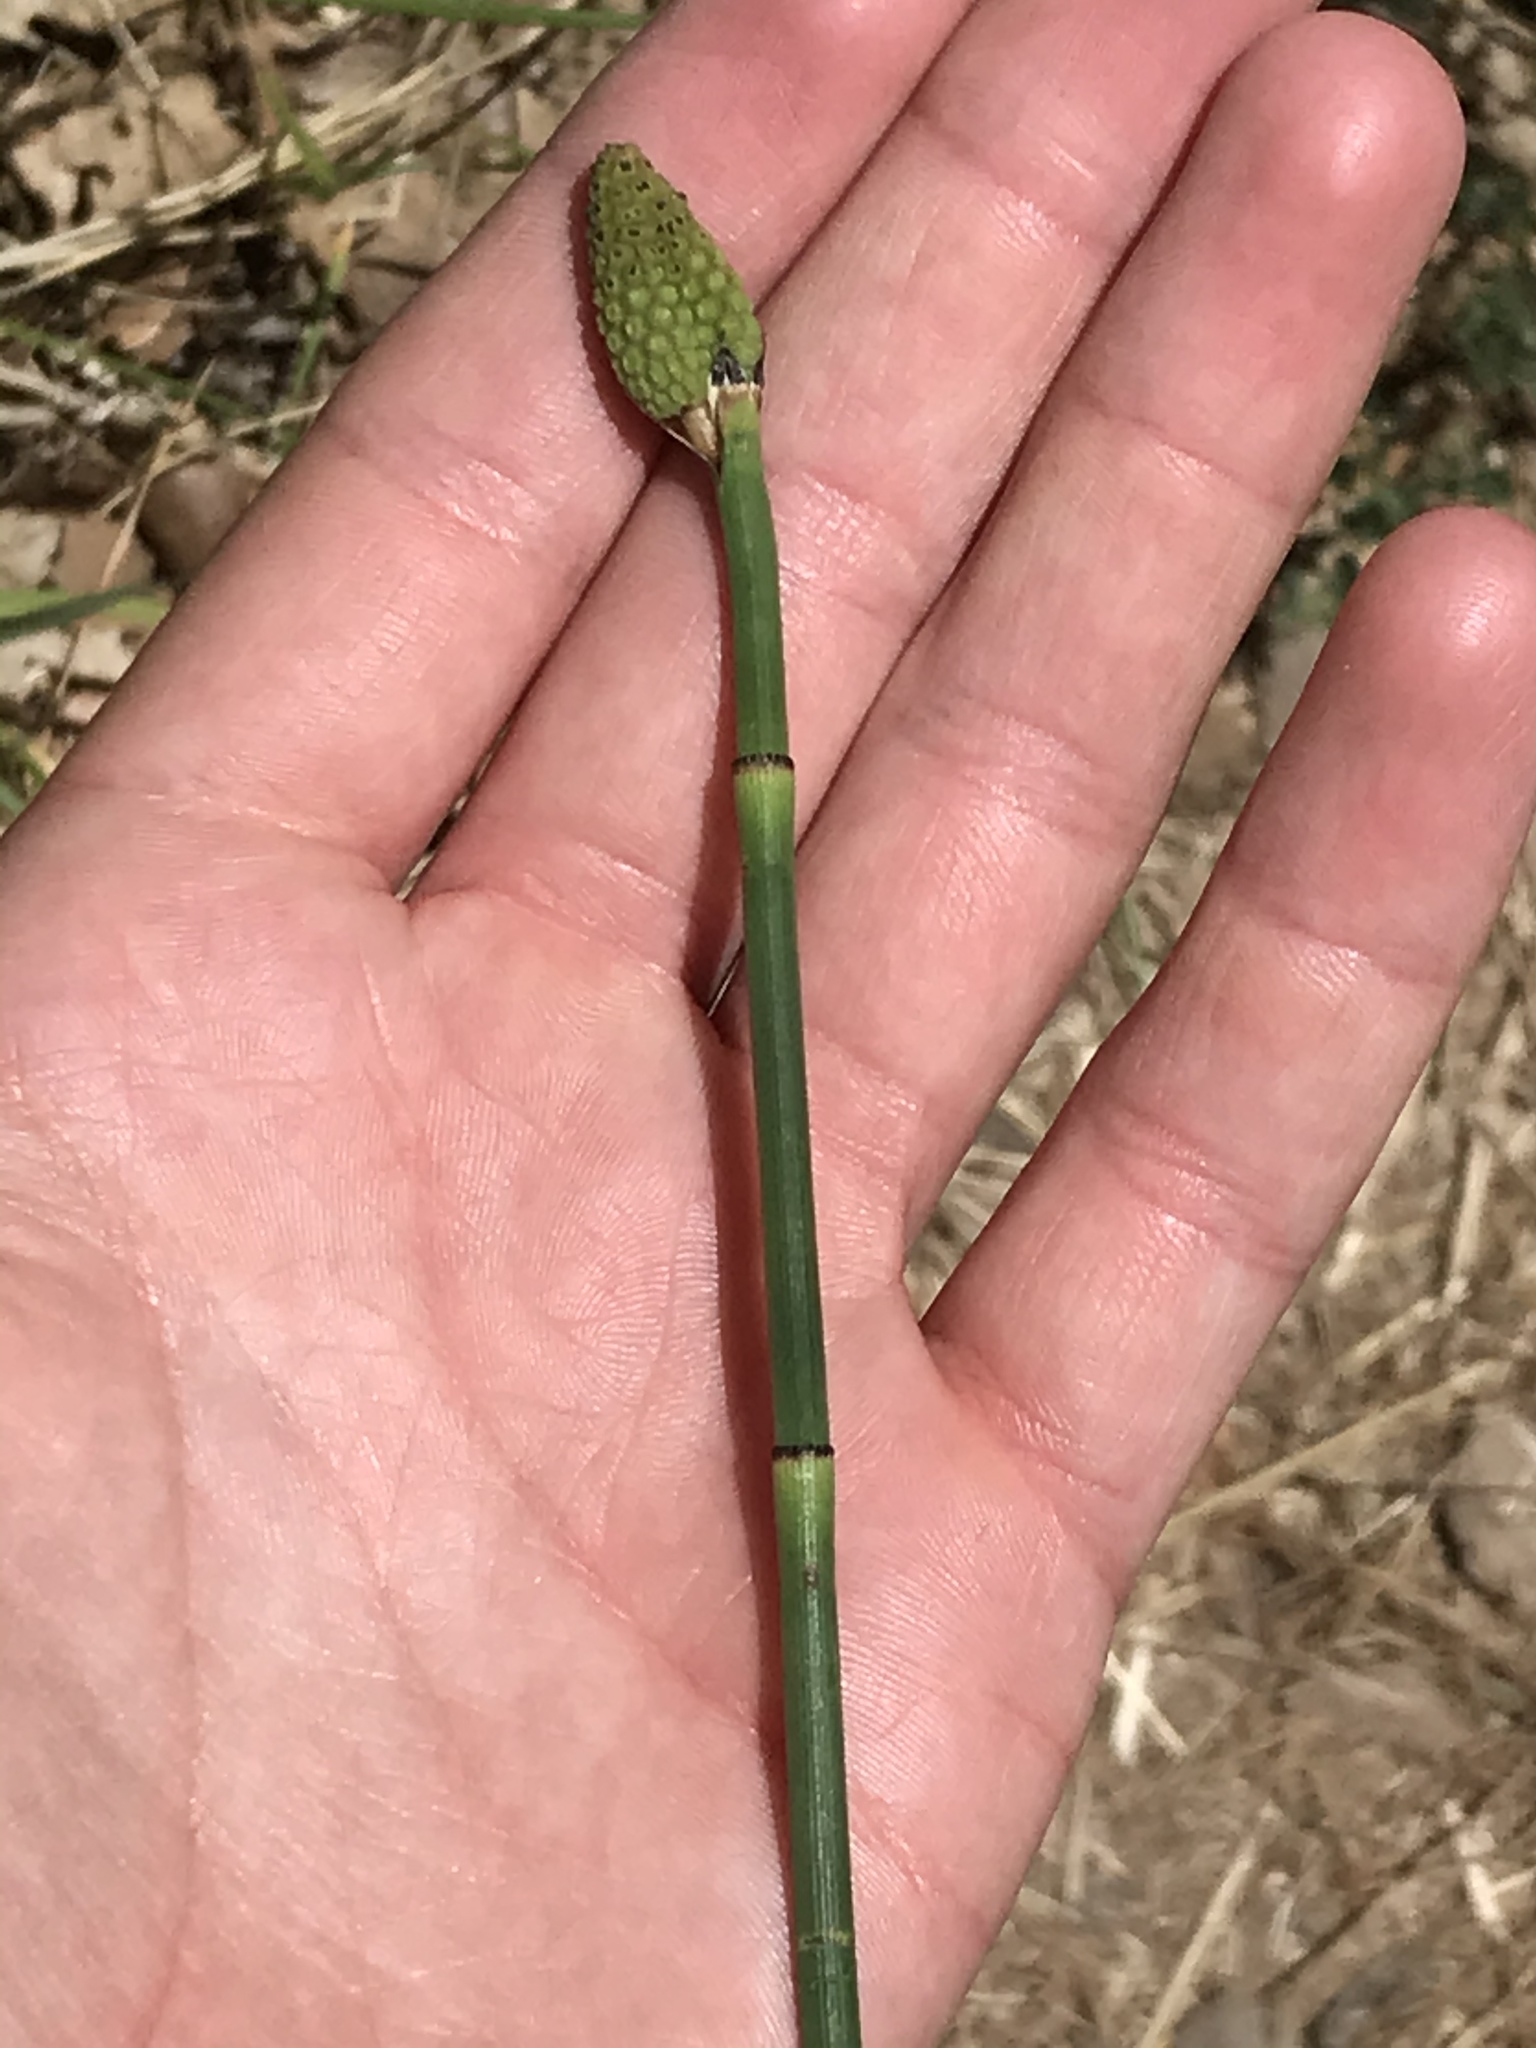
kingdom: Plantae
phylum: Tracheophyta
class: Polypodiopsida
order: Equisetales
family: Equisetaceae
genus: Equisetum
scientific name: Equisetum laevigatum
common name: Smooth scouring-rush
